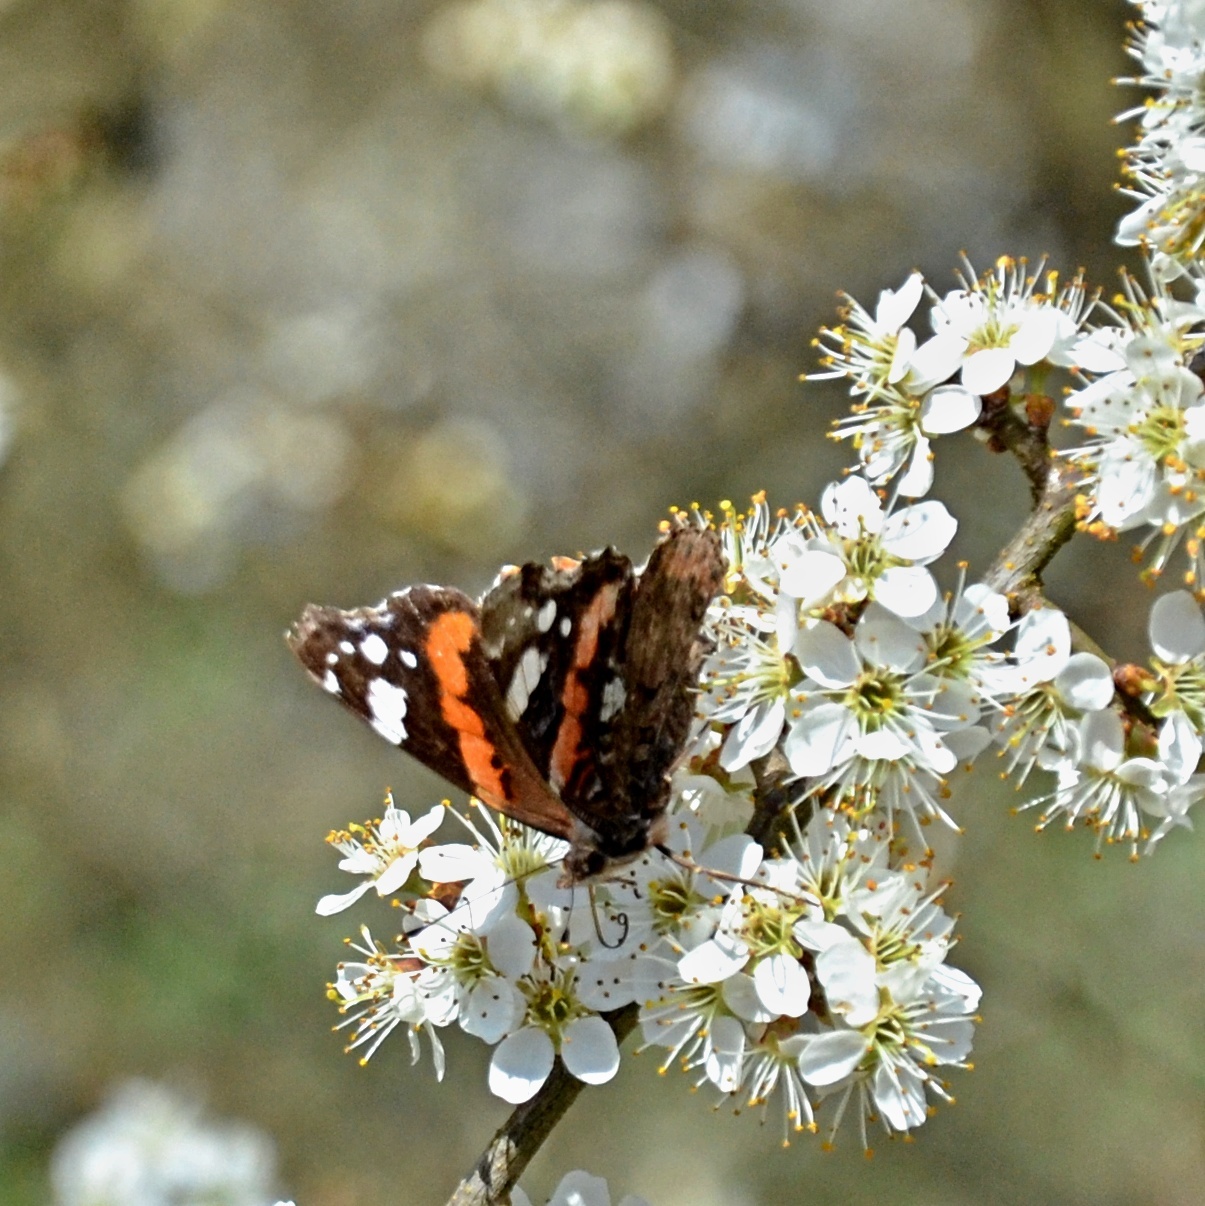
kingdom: Animalia
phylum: Arthropoda
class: Insecta
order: Lepidoptera
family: Nymphalidae
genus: Vanessa
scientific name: Vanessa atalanta
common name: Red admiral
